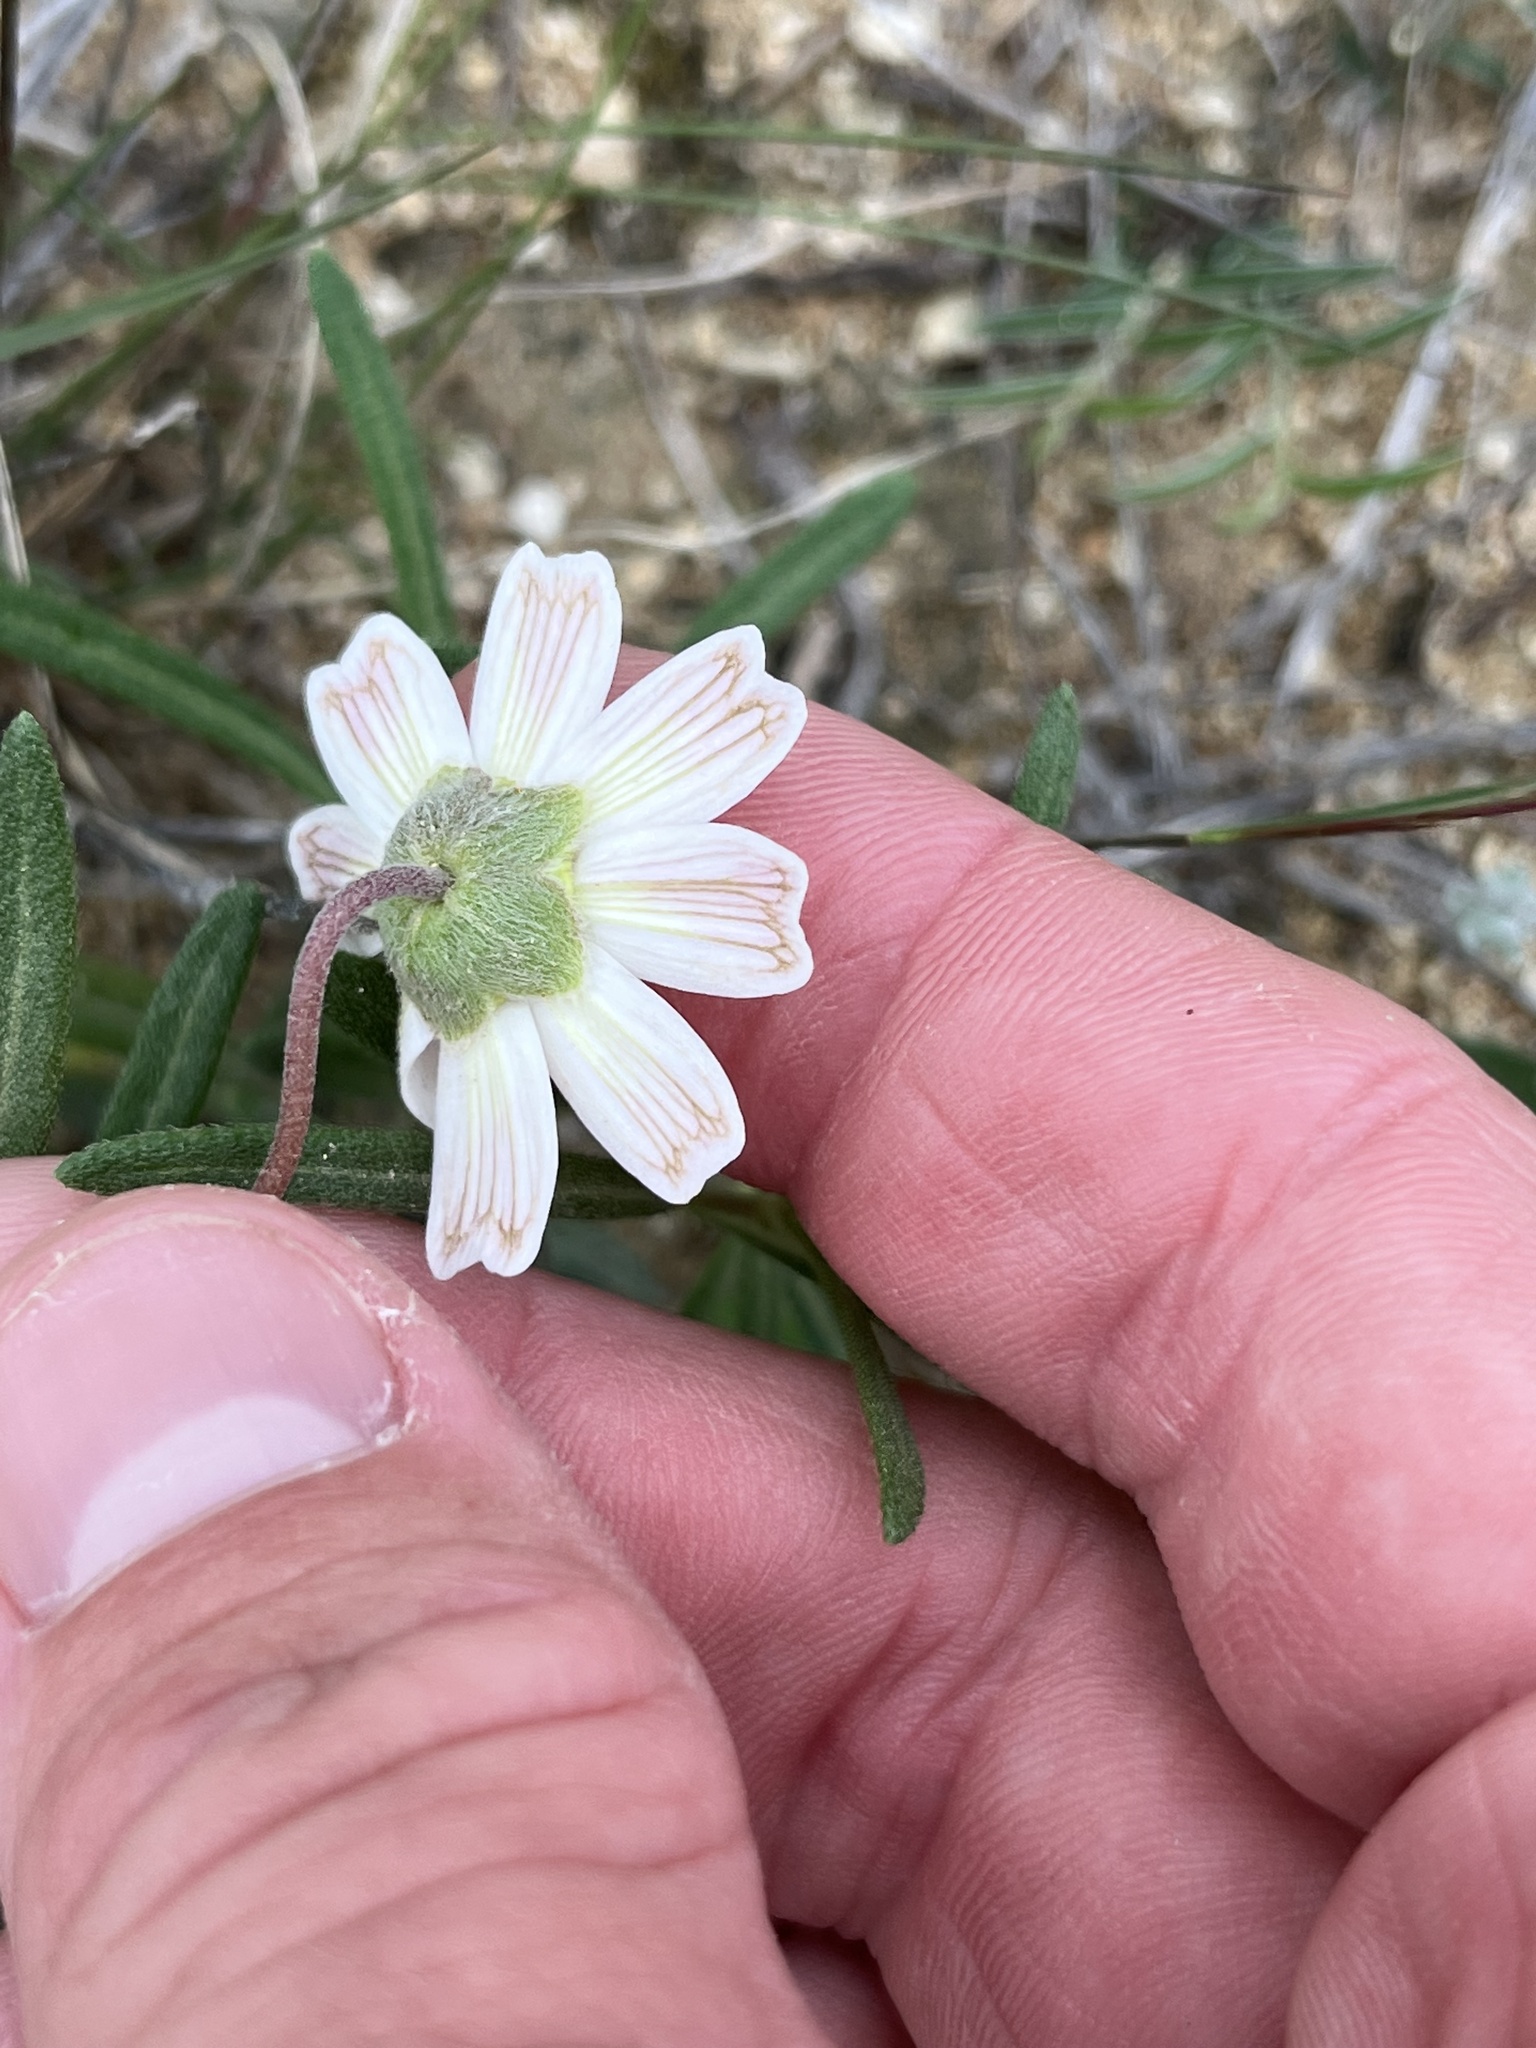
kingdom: Plantae
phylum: Tracheophyta
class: Magnoliopsida
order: Asterales
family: Asteraceae
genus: Melampodium
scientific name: Melampodium leucanthum
